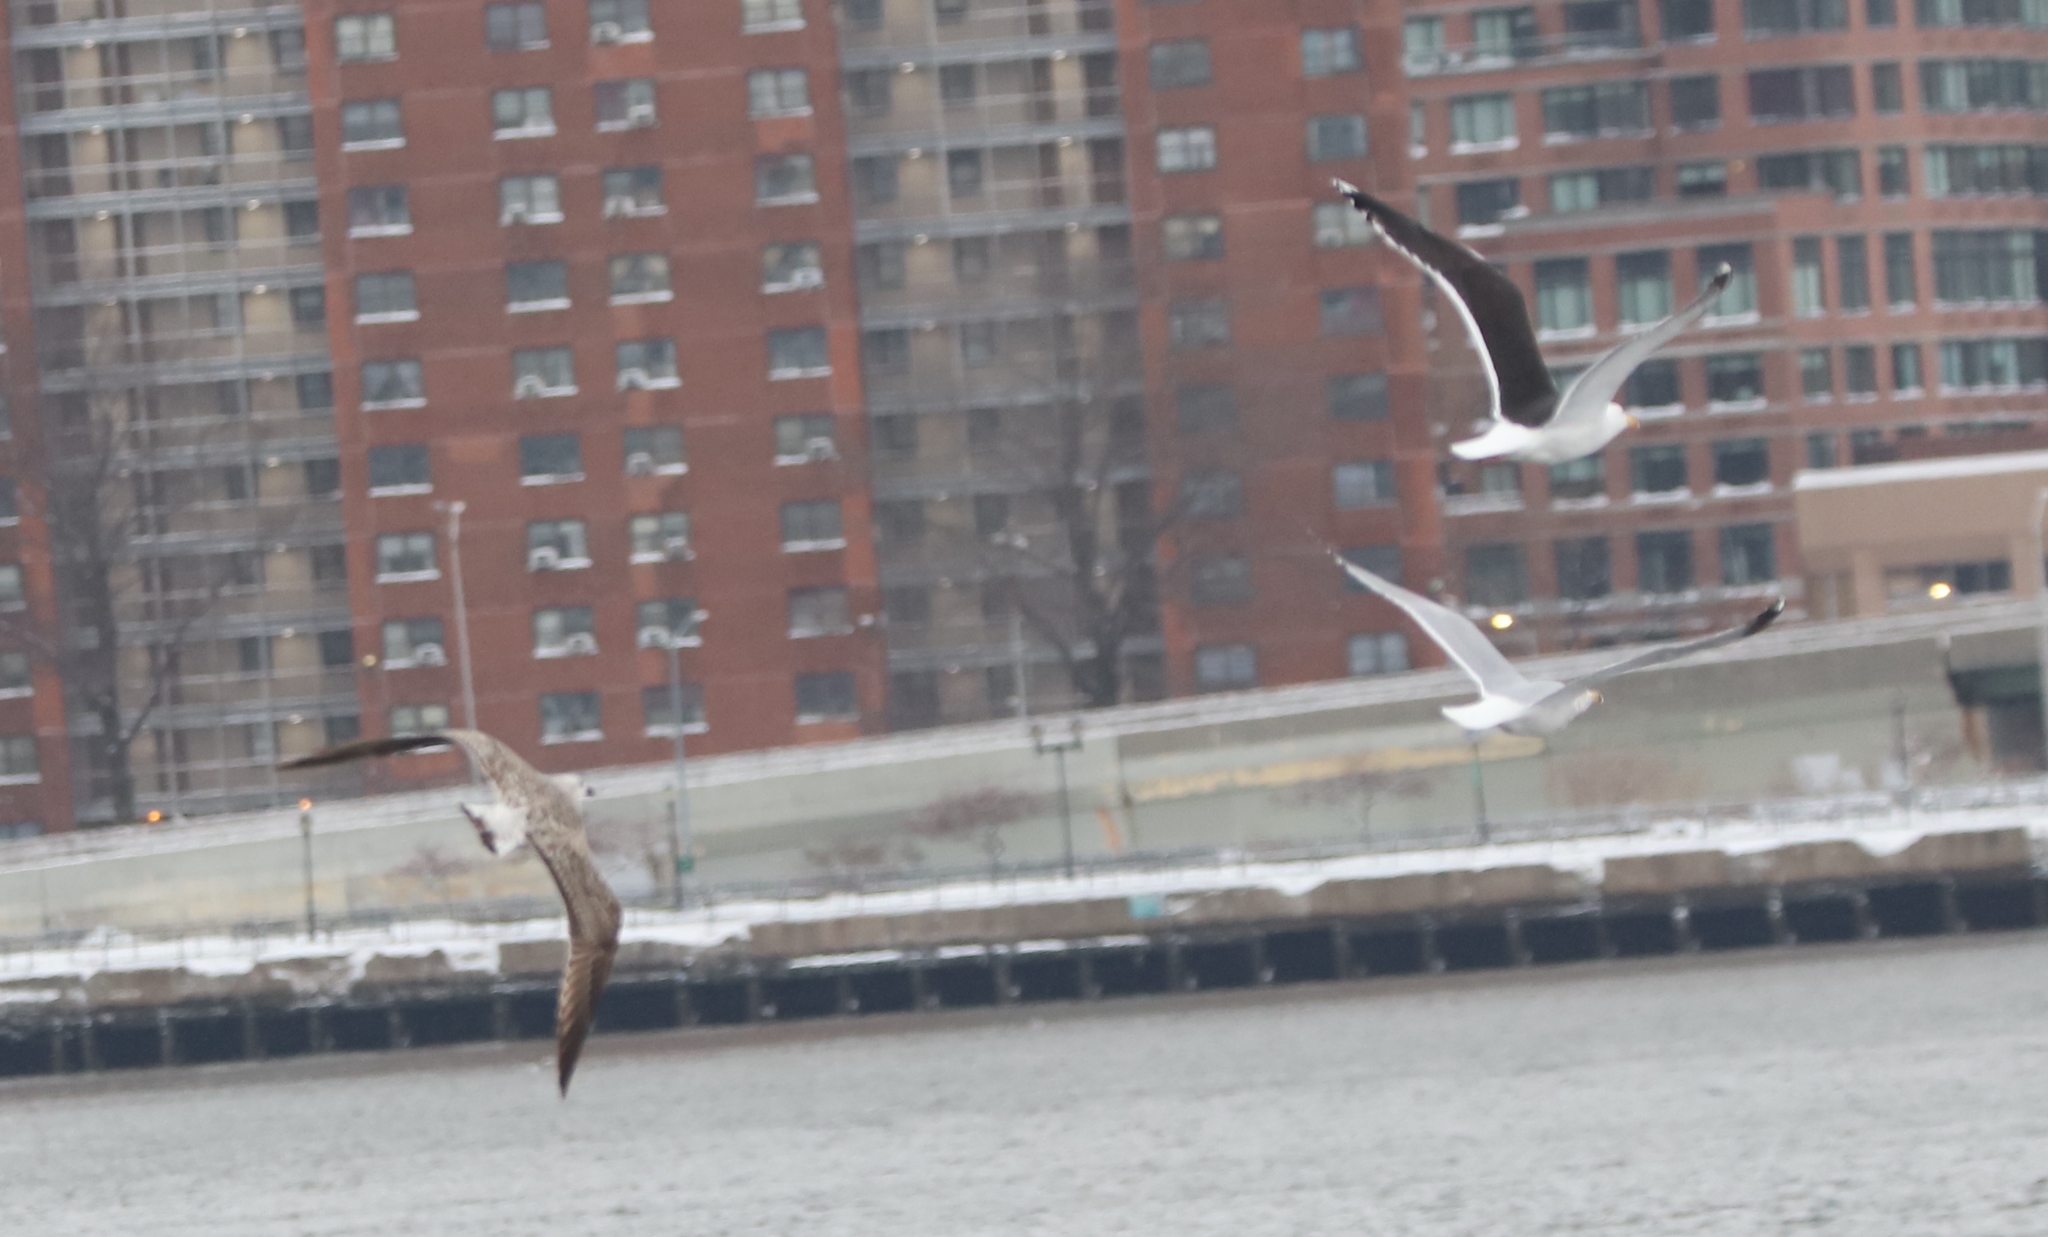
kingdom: Animalia
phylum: Chordata
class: Aves
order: Charadriiformes
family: Laridae
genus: Larus
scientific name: Larus marinus
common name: Great black-backed gull
